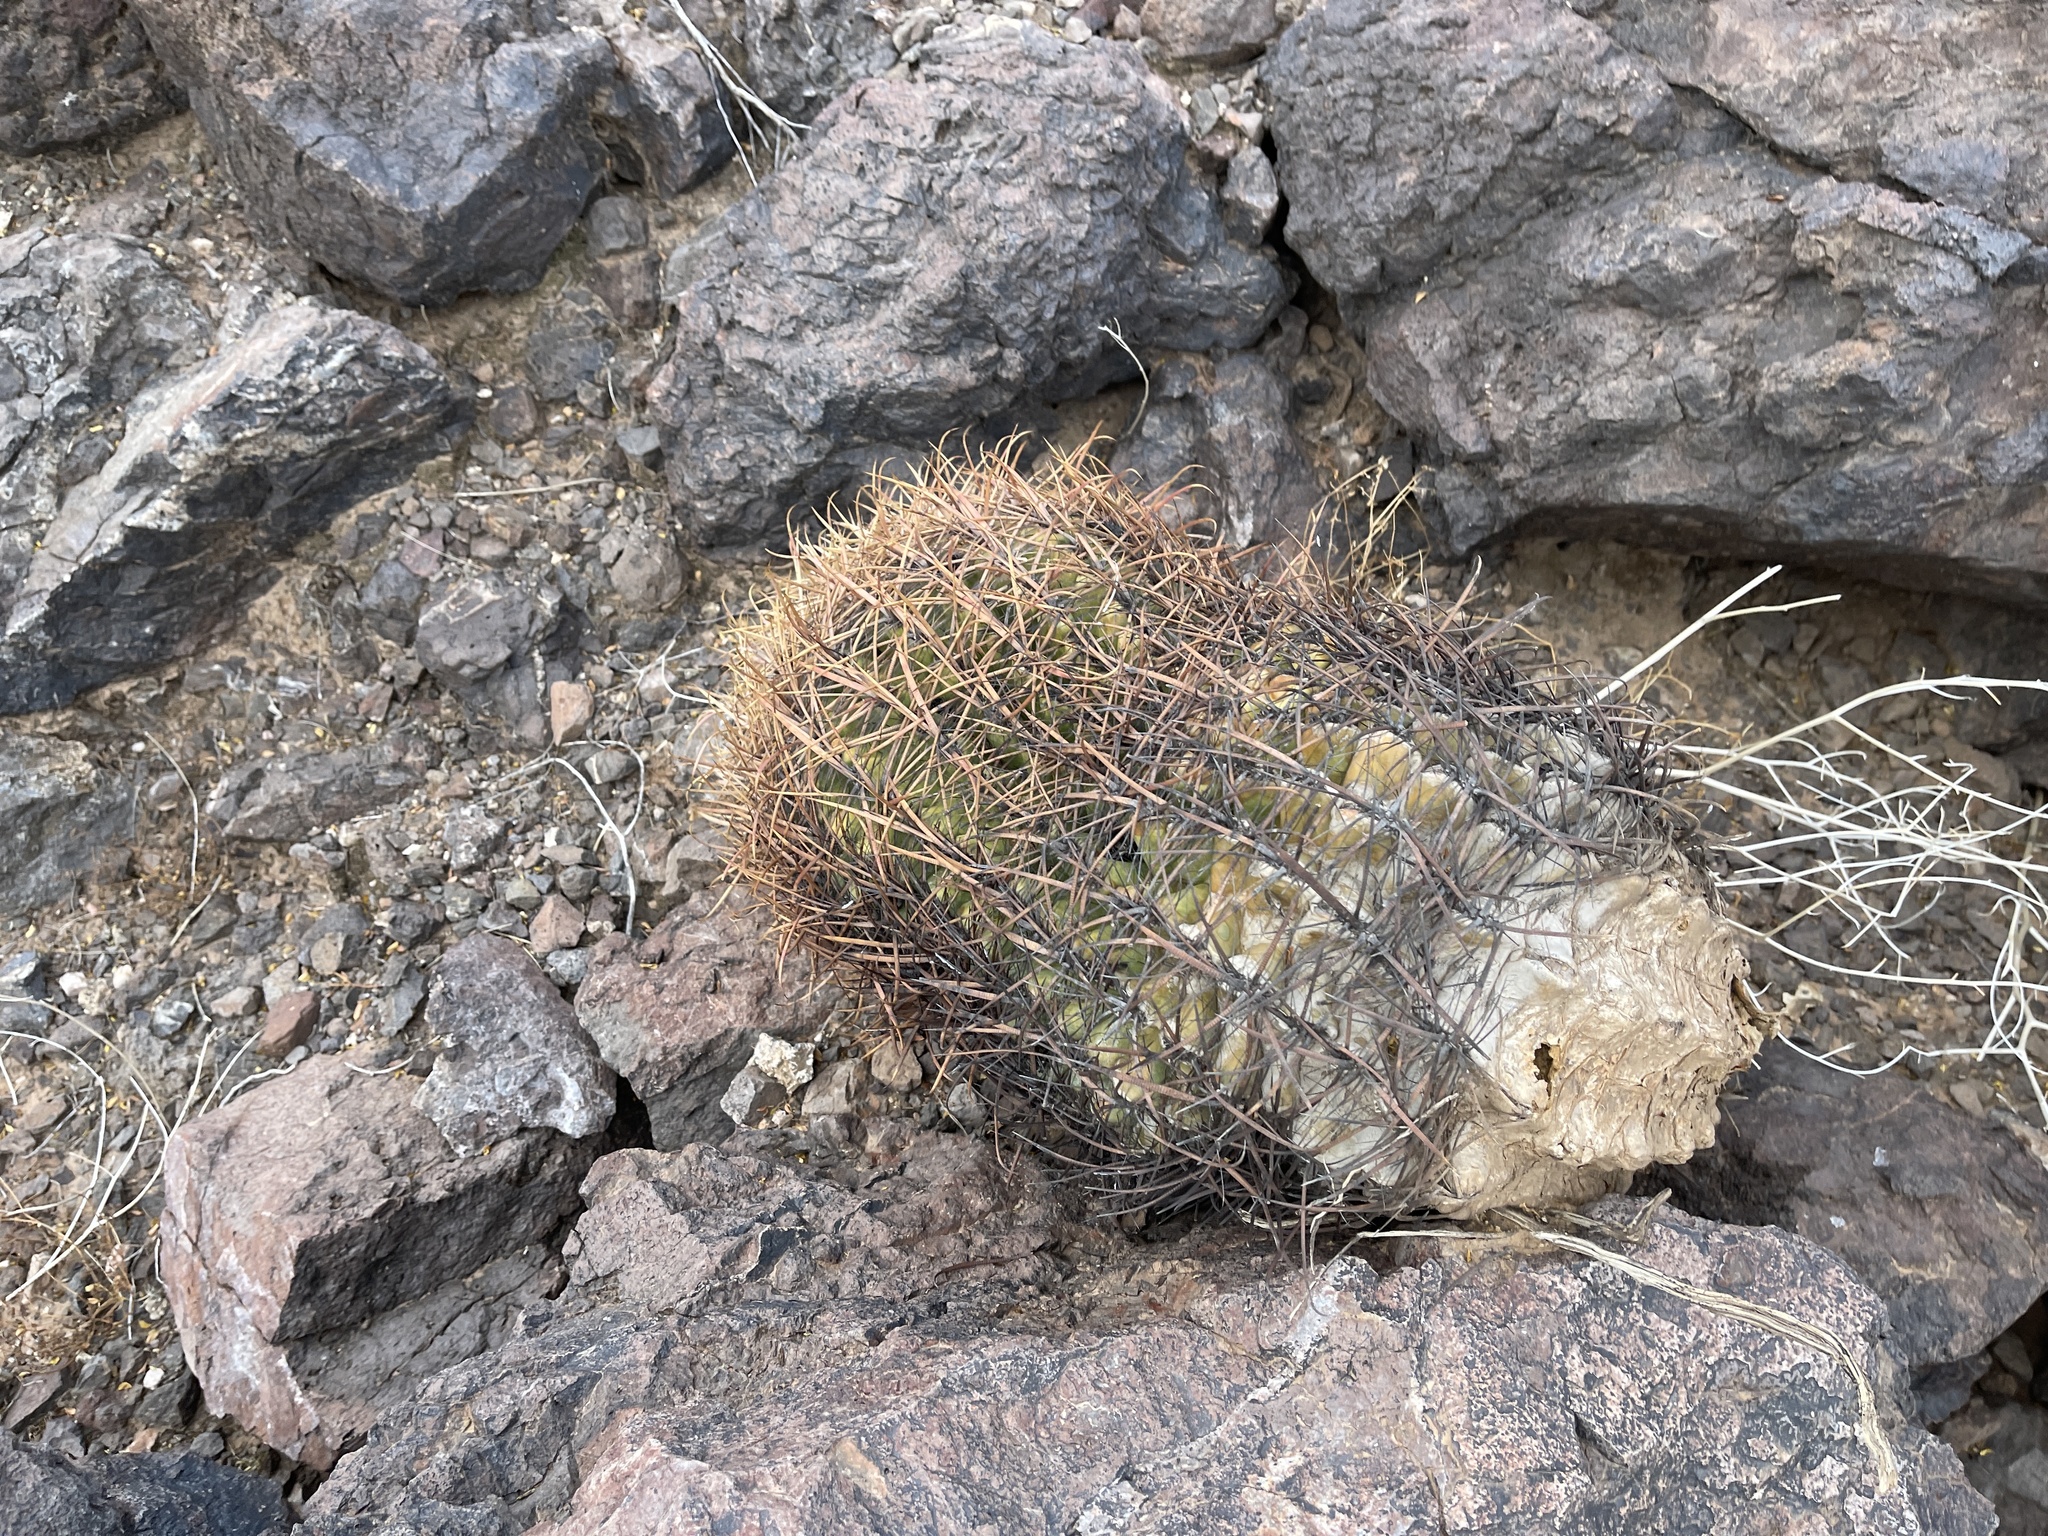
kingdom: Plantae
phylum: Tracheophyta
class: Magnoliopsida
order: Caryophyllales
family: Cactaceae
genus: Ferocactus
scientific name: Ferocactus cylindraceus
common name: California barrel cactus
